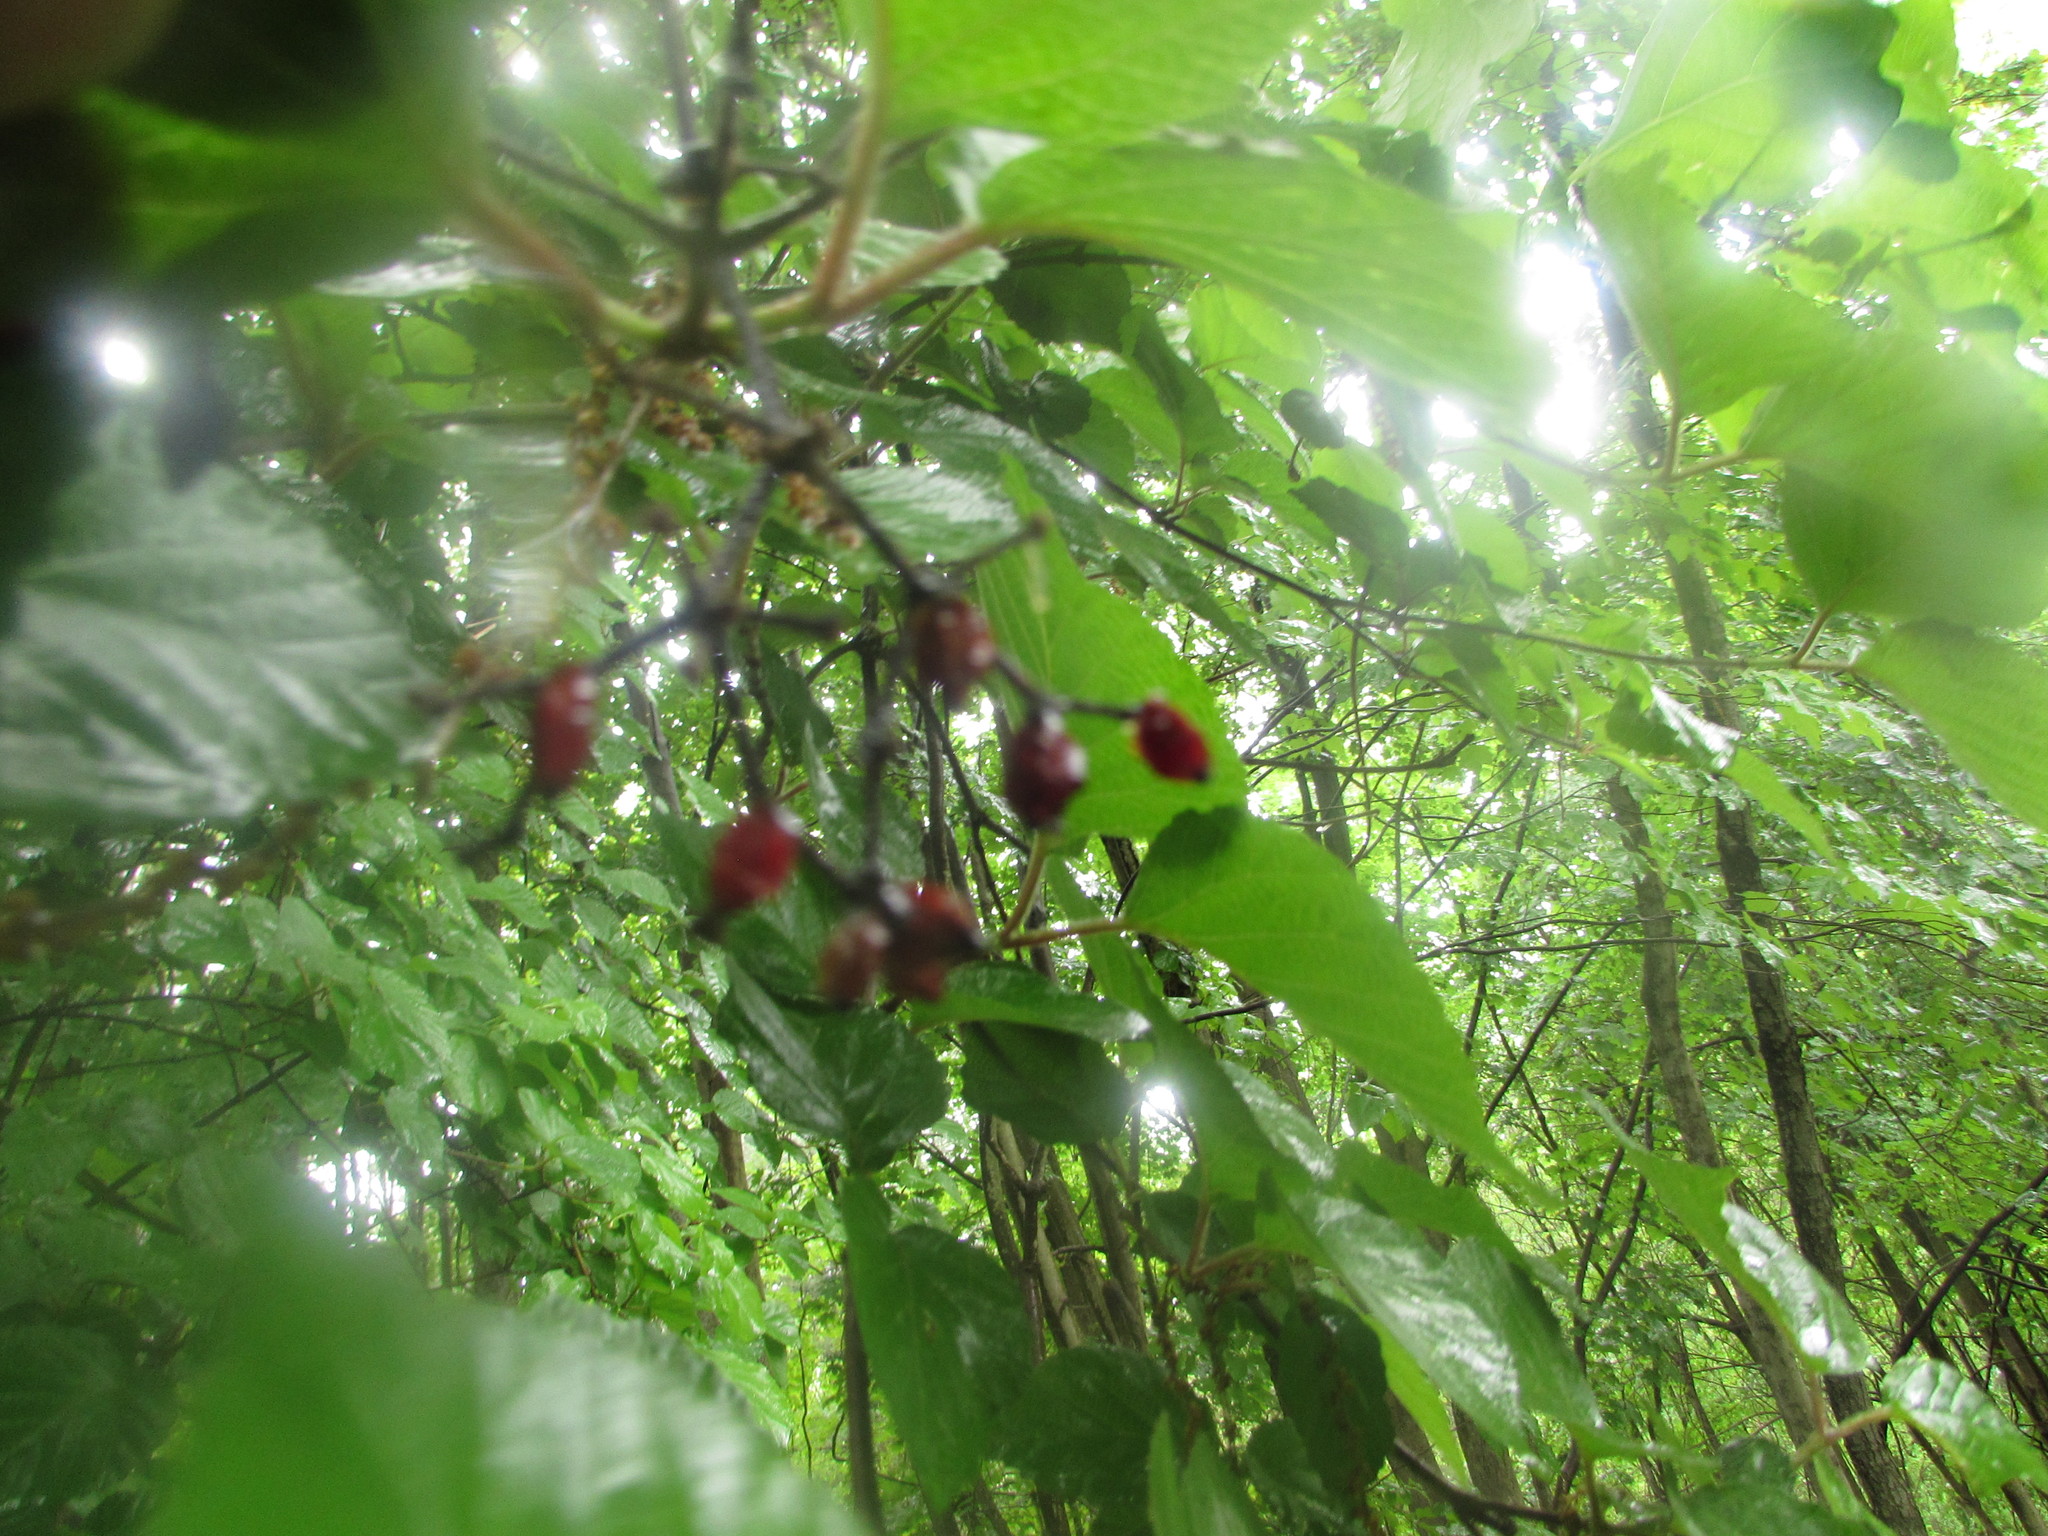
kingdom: Plantae
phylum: Tracheophyta
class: Magnoliopsida
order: Dipsacales
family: Viburnaceae
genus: Viburnum
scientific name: Viburnum dilatatum
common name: Linden arrowwood
